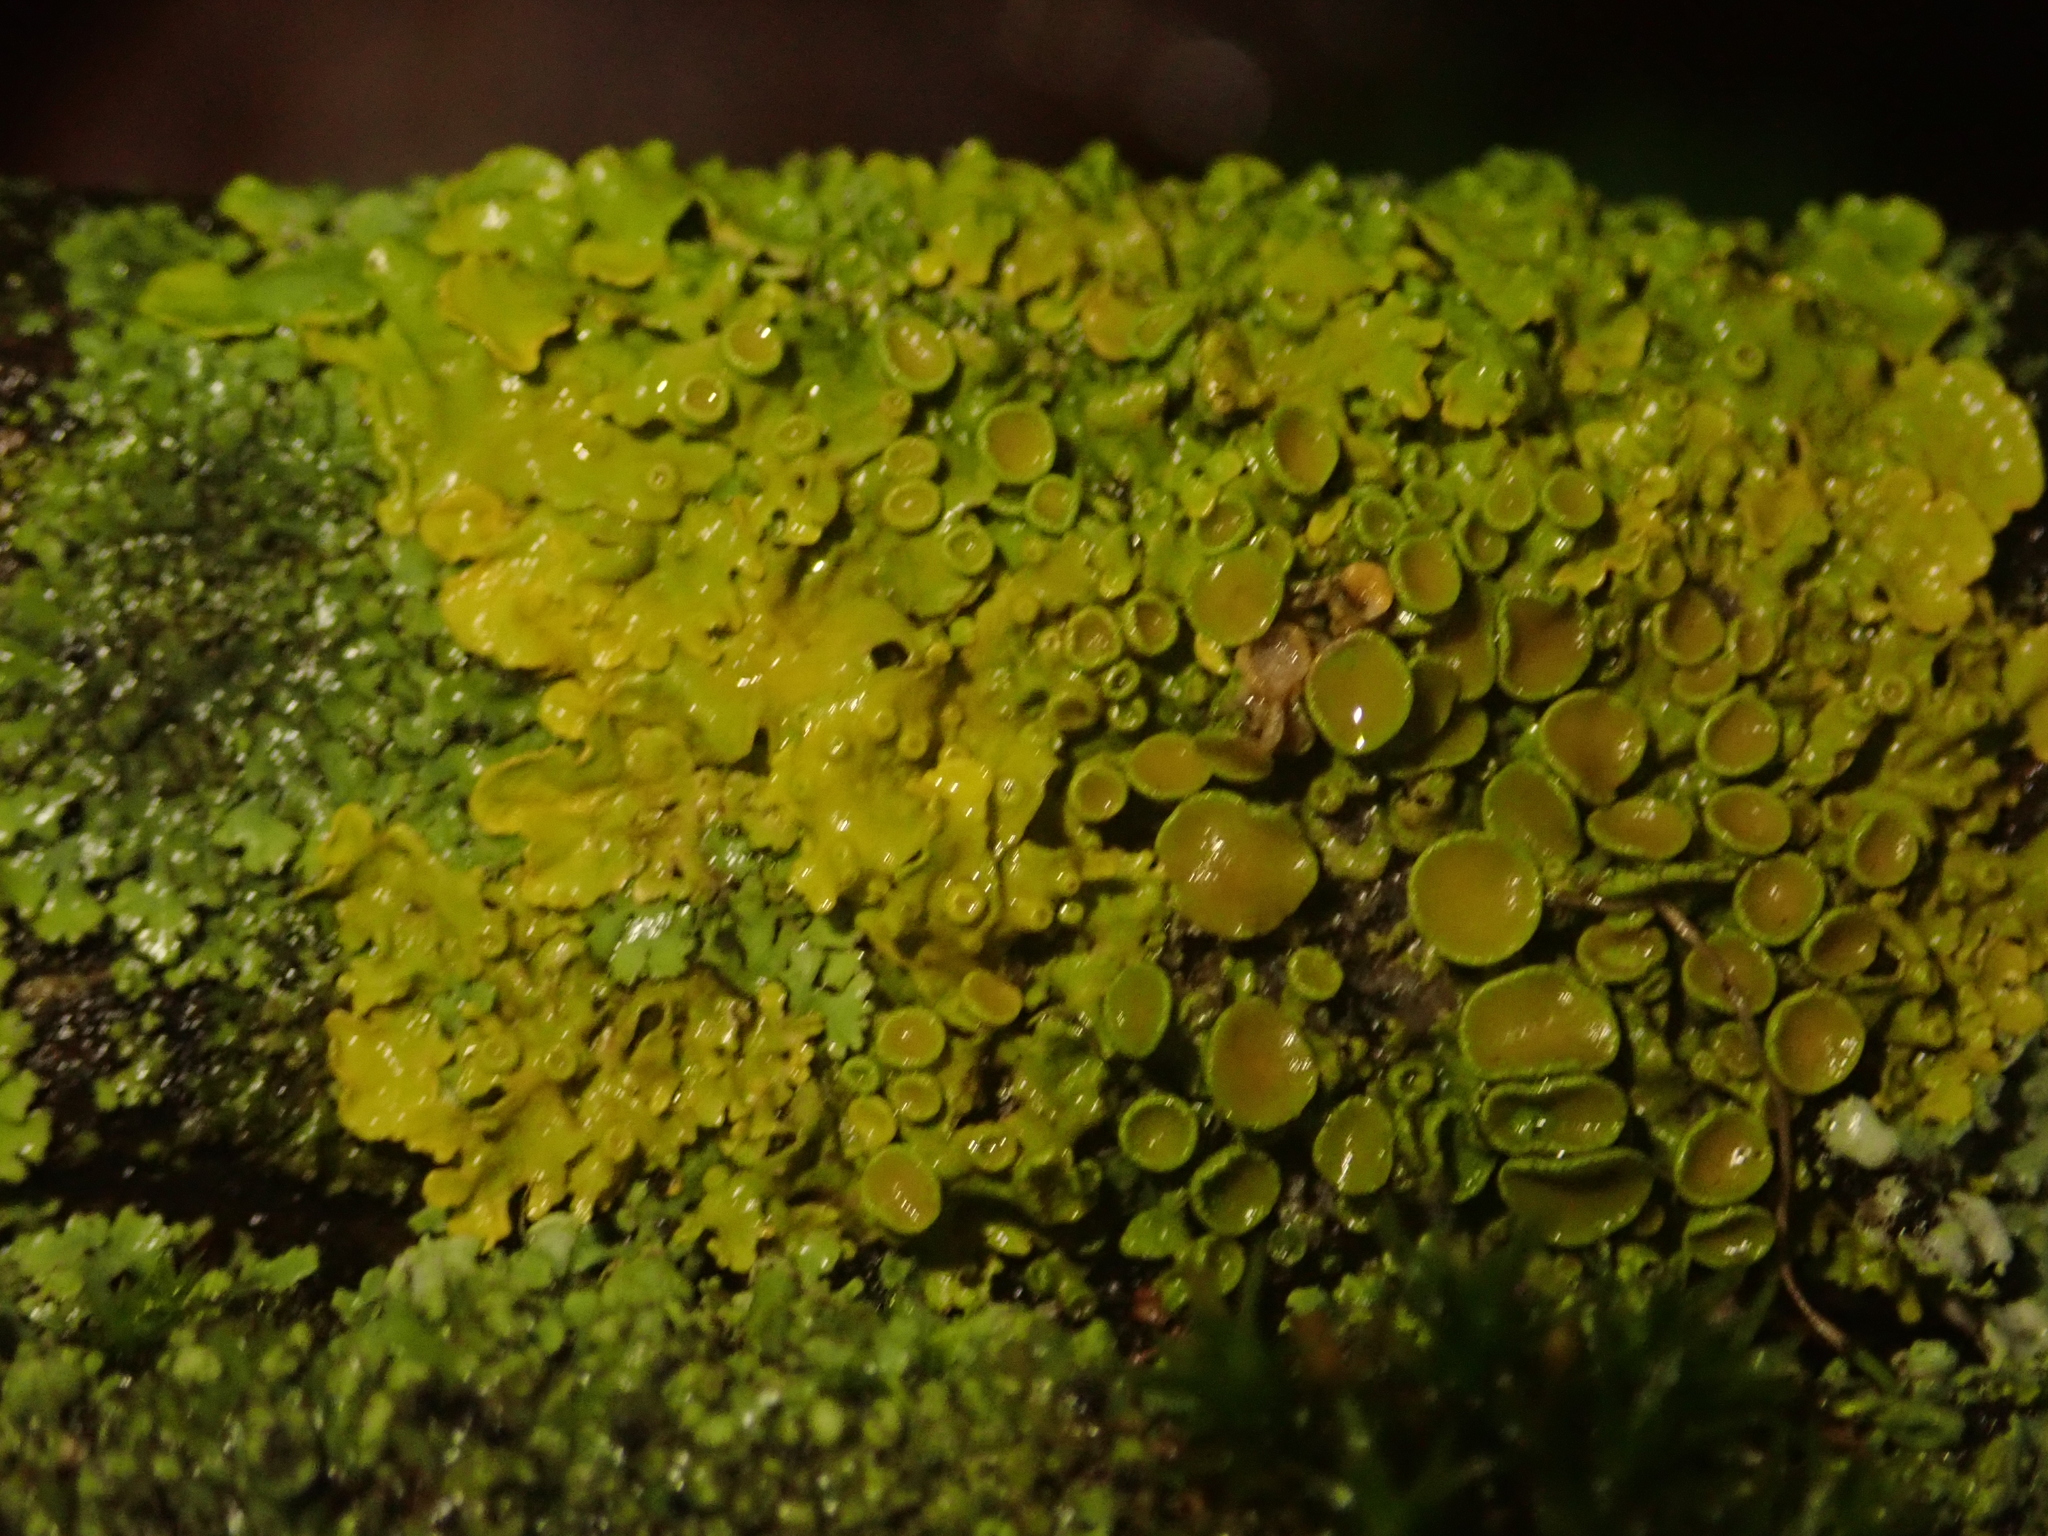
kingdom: Fungi
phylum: Ascomycota
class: Lecanoromycetes
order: Teloschistales
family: Teloschistaceae
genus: Xanthoria
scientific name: Xanthoria parietina
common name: Common orange lichen
